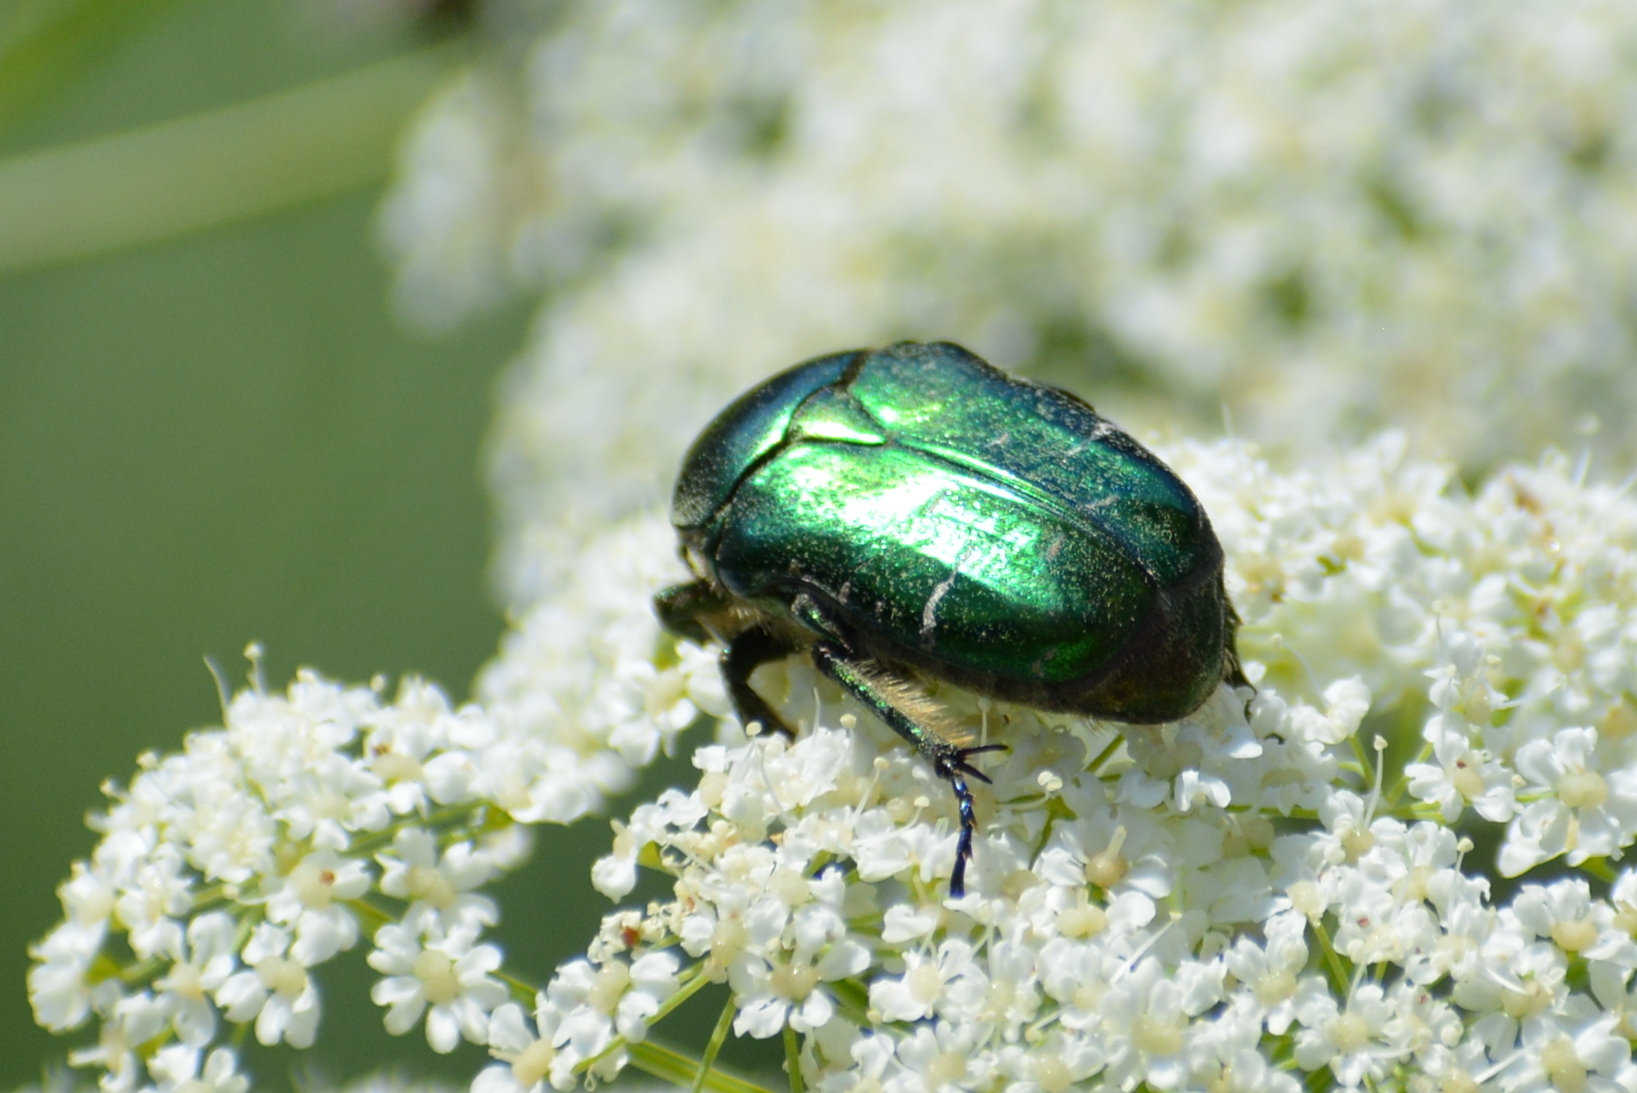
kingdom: Animalia
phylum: Arthropoda
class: Insecta
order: Coleoptera
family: Scarabaeidae
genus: Cetonia
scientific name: Cetonia aurata
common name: Rose chafer
